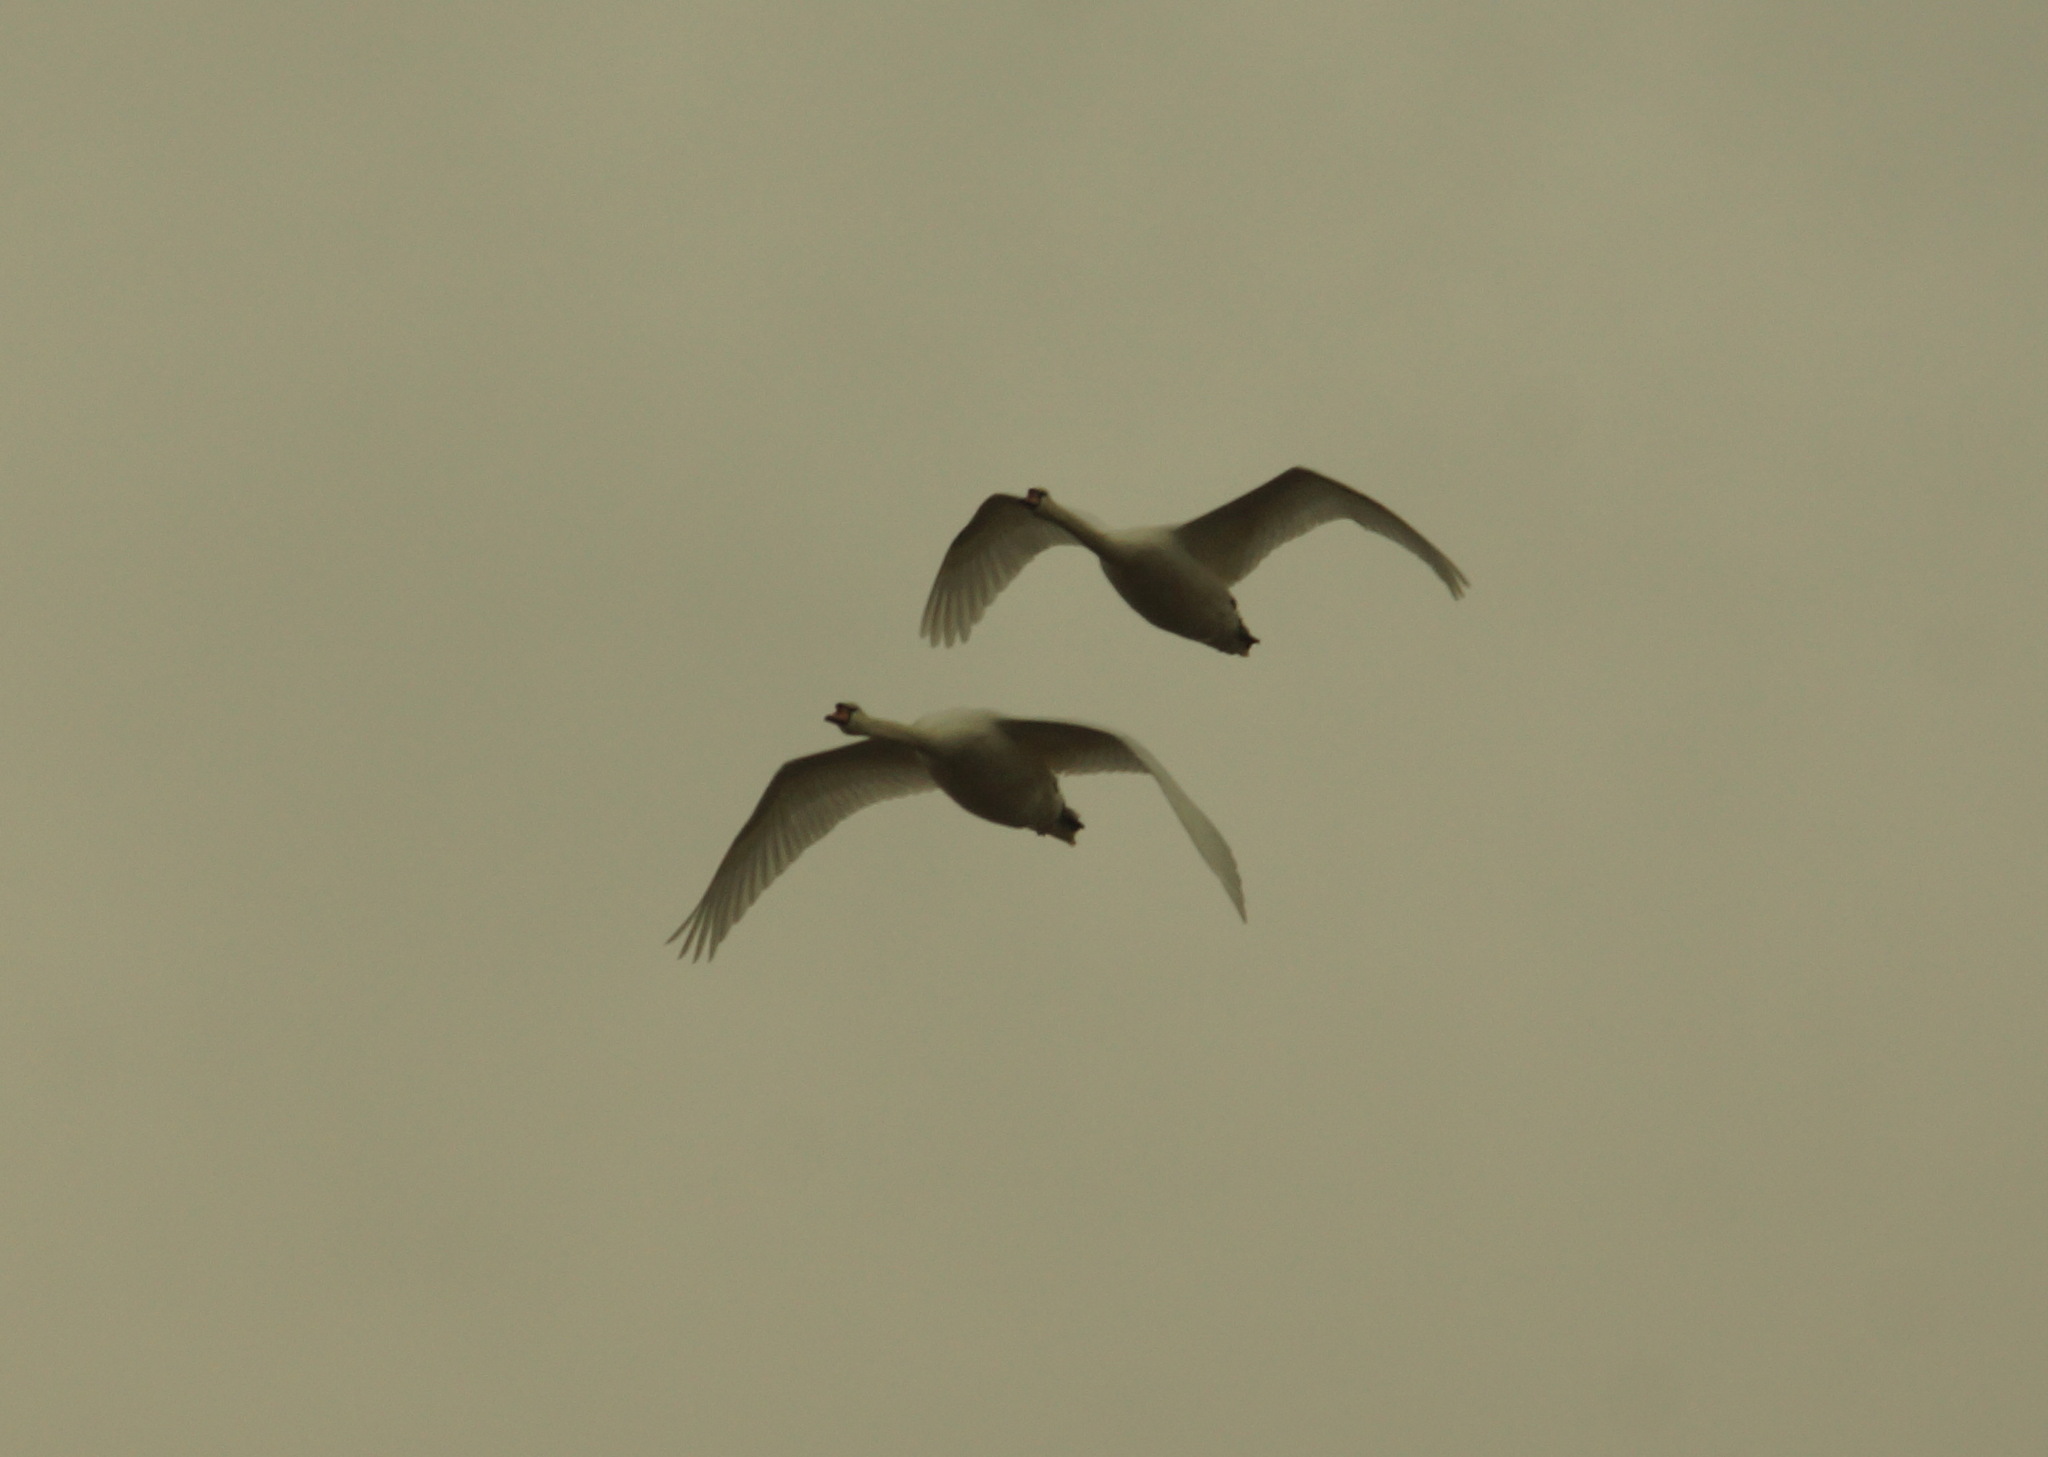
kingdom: Animalia
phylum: Chordata
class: Aves
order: Anseriformes
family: Anatidae
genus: Cygnus
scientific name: Cygnus olor
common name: Mute swan
